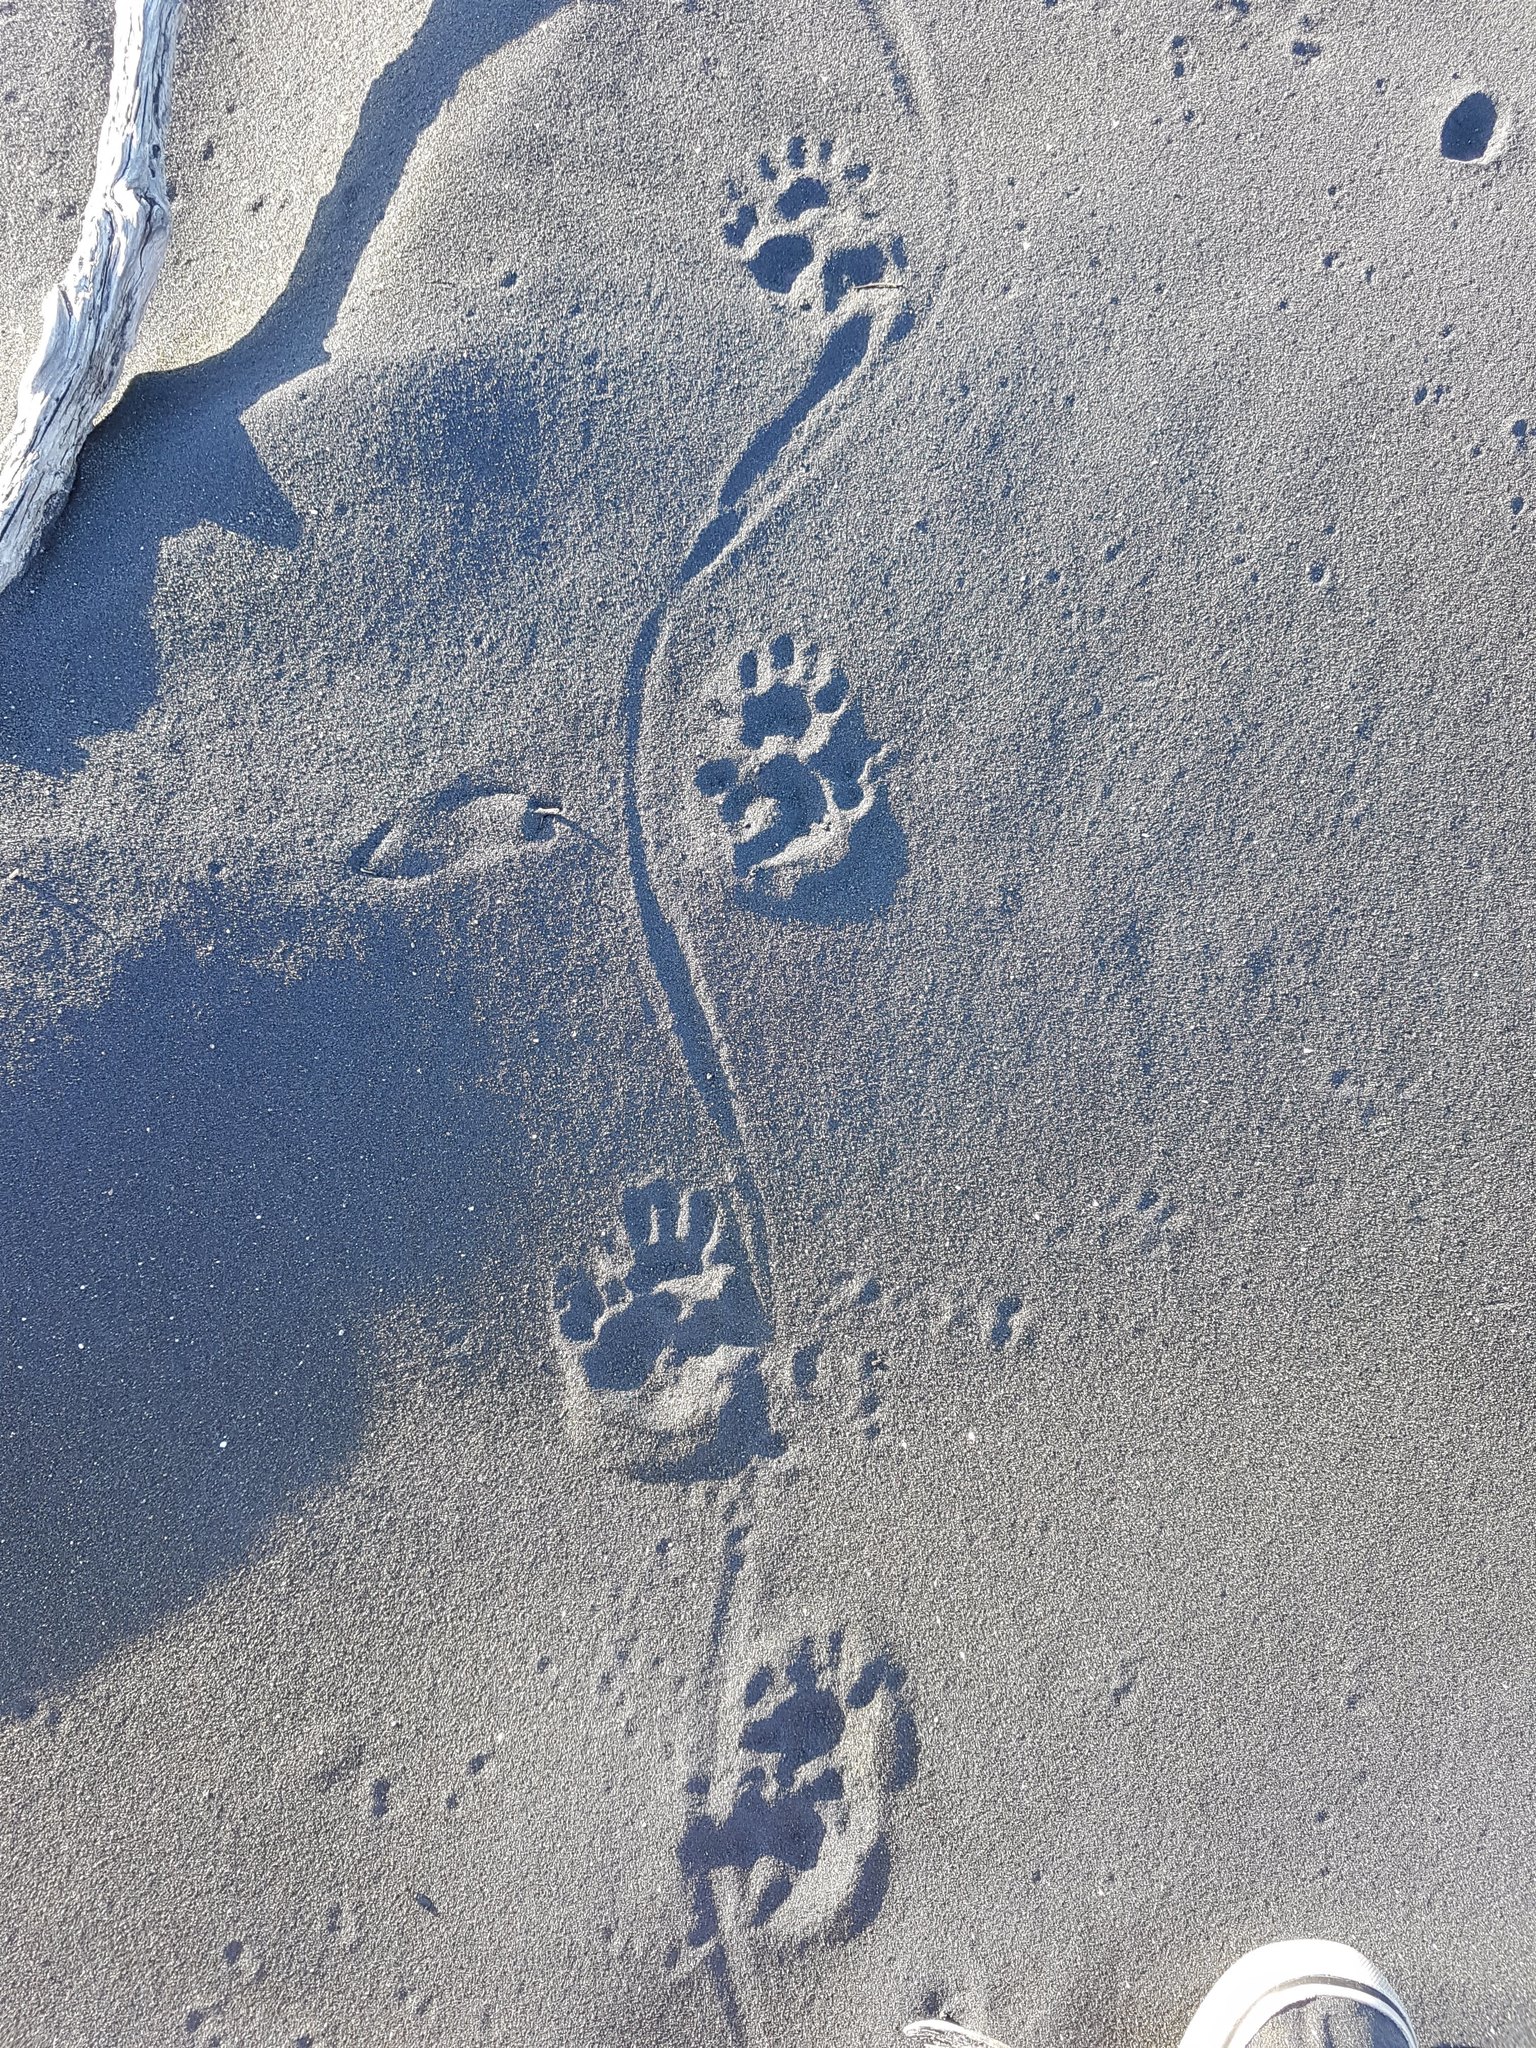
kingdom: Animalia
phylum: Chordata
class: Mammalia
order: Diprotodontia
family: Phalangeridae
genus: Trichosurus
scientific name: Trichosurus vulpecula
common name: Common brushtail
